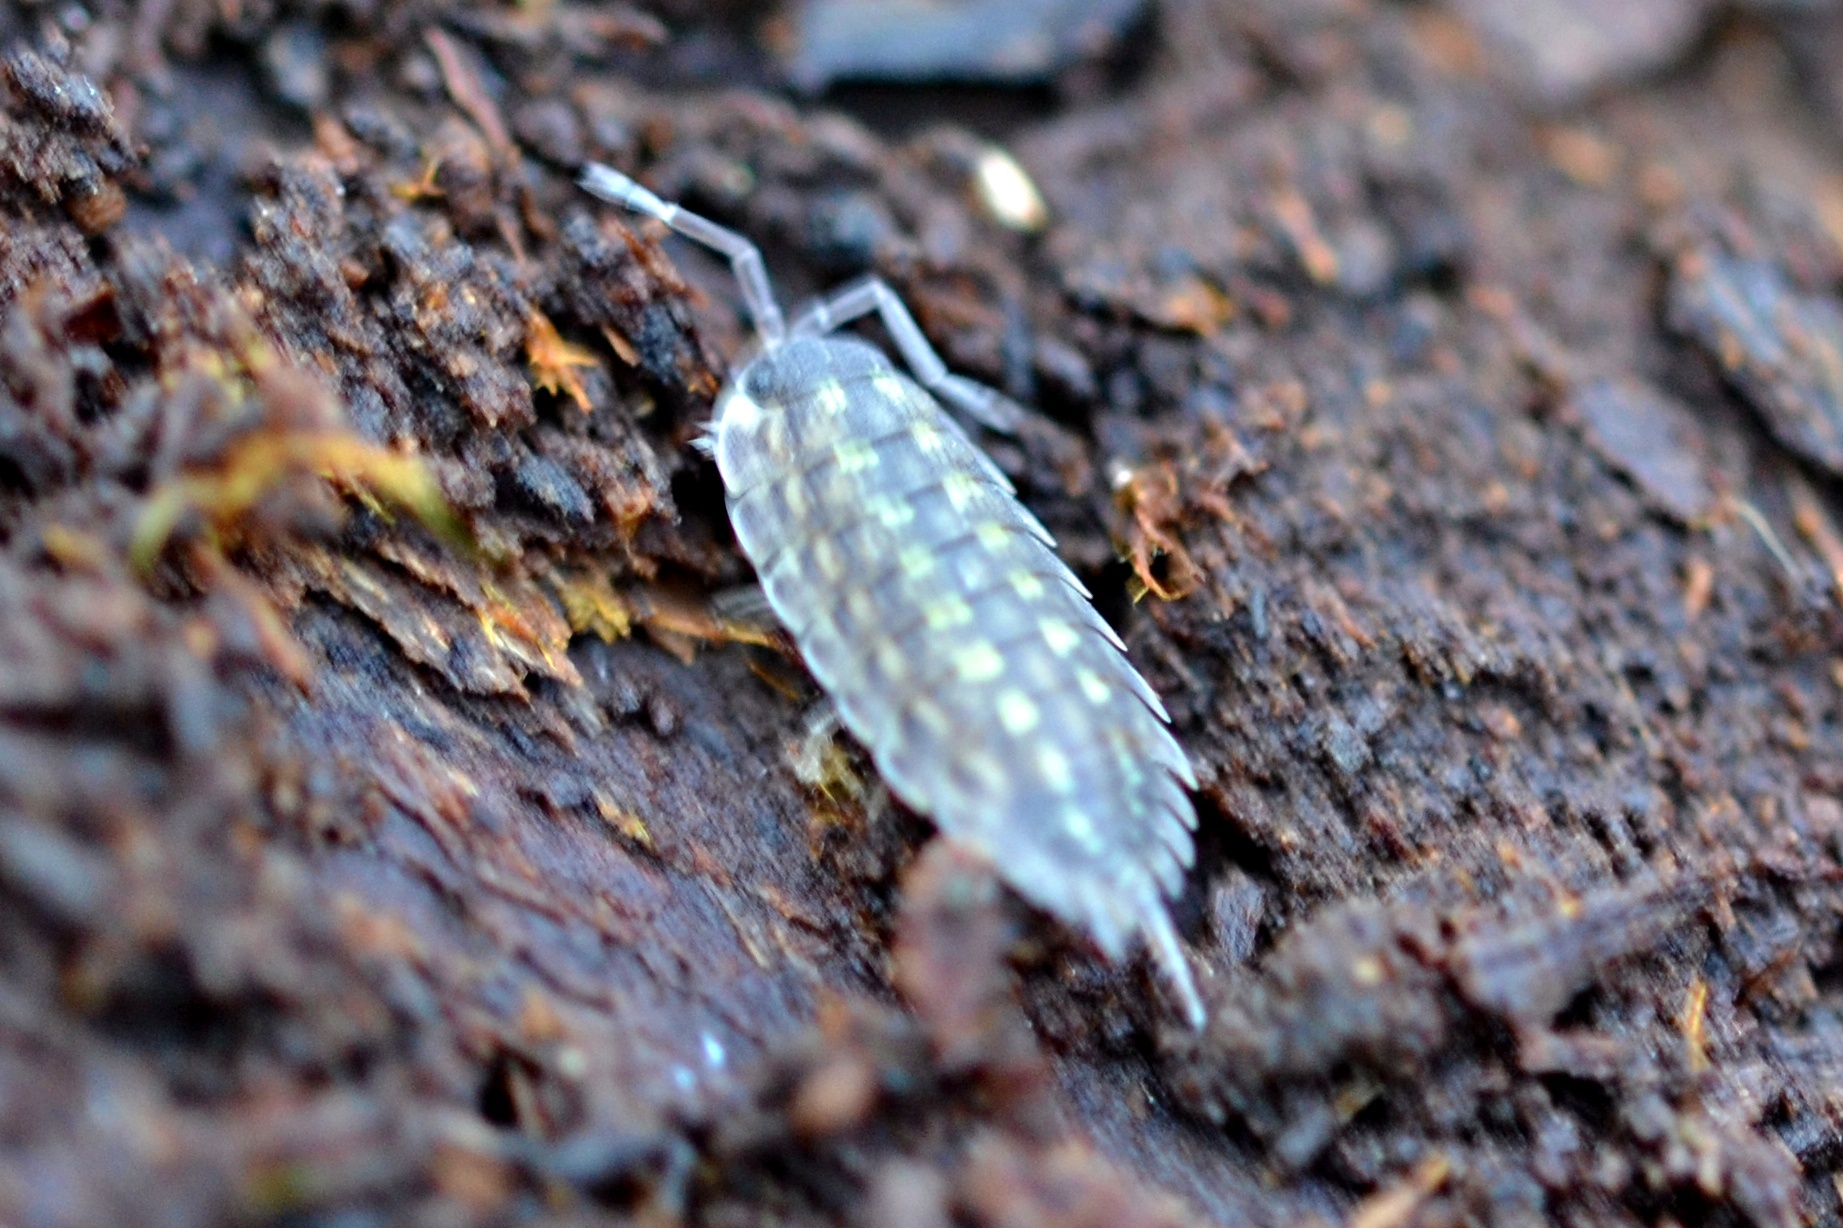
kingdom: Animalia
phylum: Arthropoda
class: Malacostraca
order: Isopoda
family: Porcellionidae
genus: Porcellio
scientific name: Porcellio spinicornis
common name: Painted woodlouse
